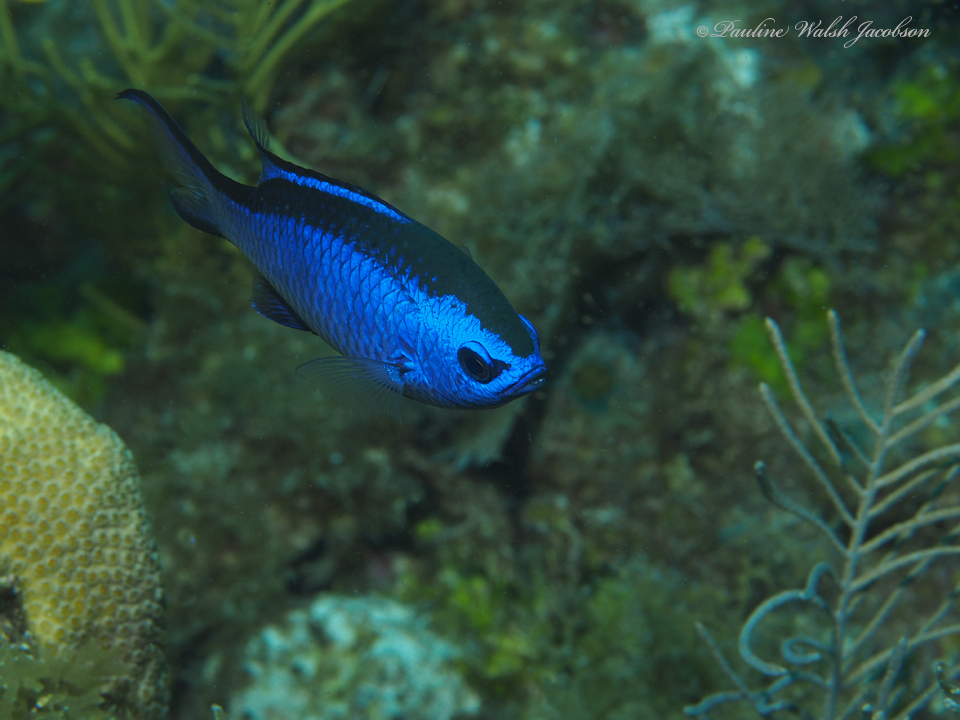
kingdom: Animalia
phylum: Chordata
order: Perciformes
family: Pomacentridae
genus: Chromis
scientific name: Chromis cyanea
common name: Blue chromis
